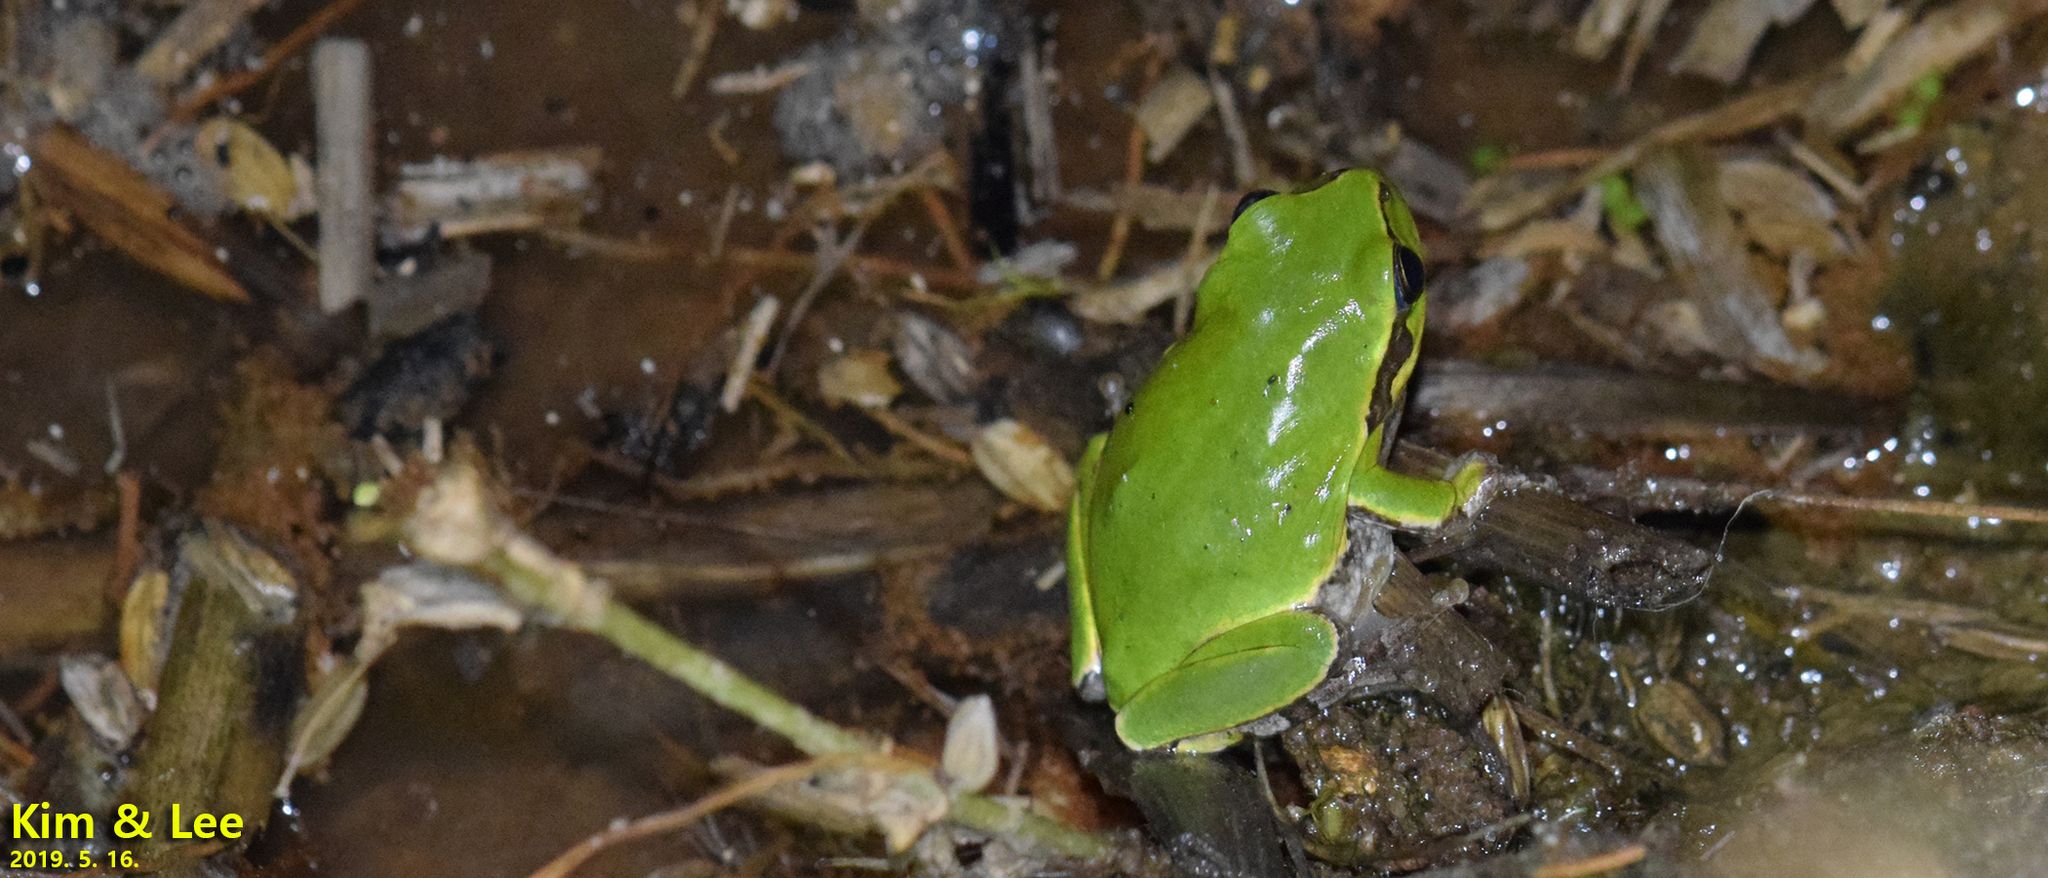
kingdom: Animalia
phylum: Chordata
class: Amphibia
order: Anura
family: Hylidae
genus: Dryophytes
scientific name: Dryophytes japonicus
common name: Japanese treefrog
